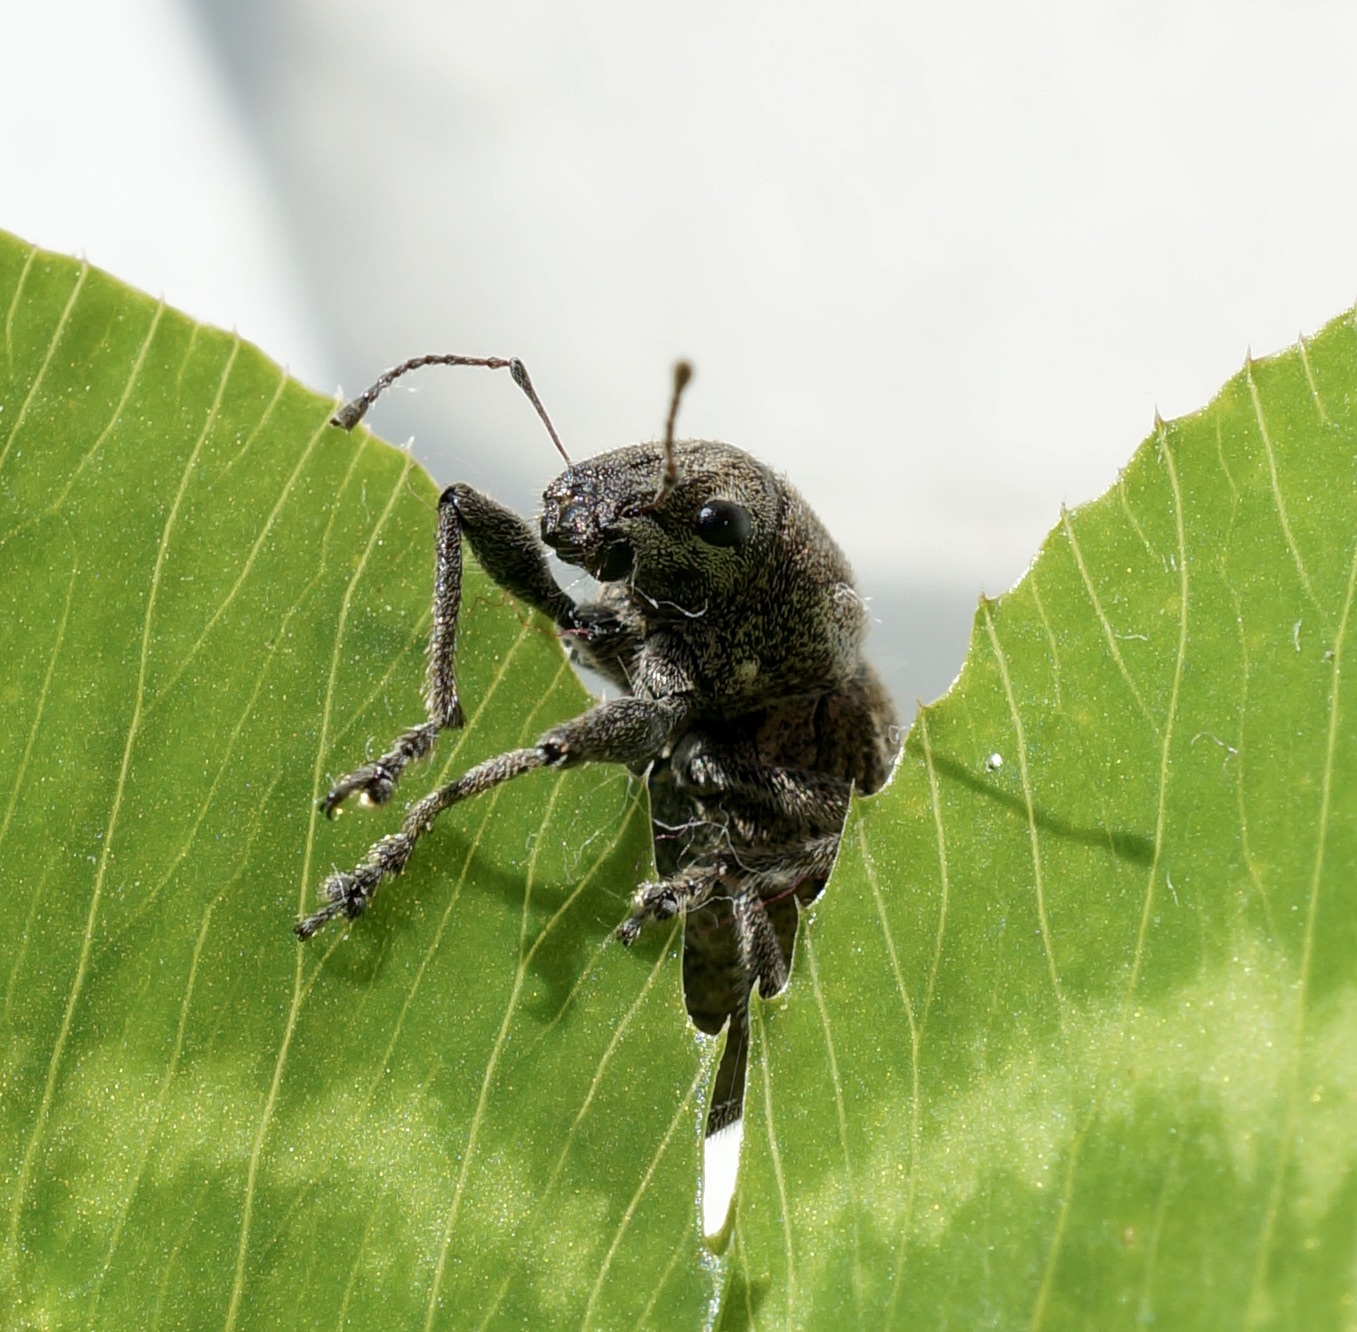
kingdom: Animalia
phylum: Arthropoda
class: Insecta
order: Coleoptera
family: Curculionidae
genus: Naupactus
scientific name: Naupactus leucoloma
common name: Whitefringed beetle
